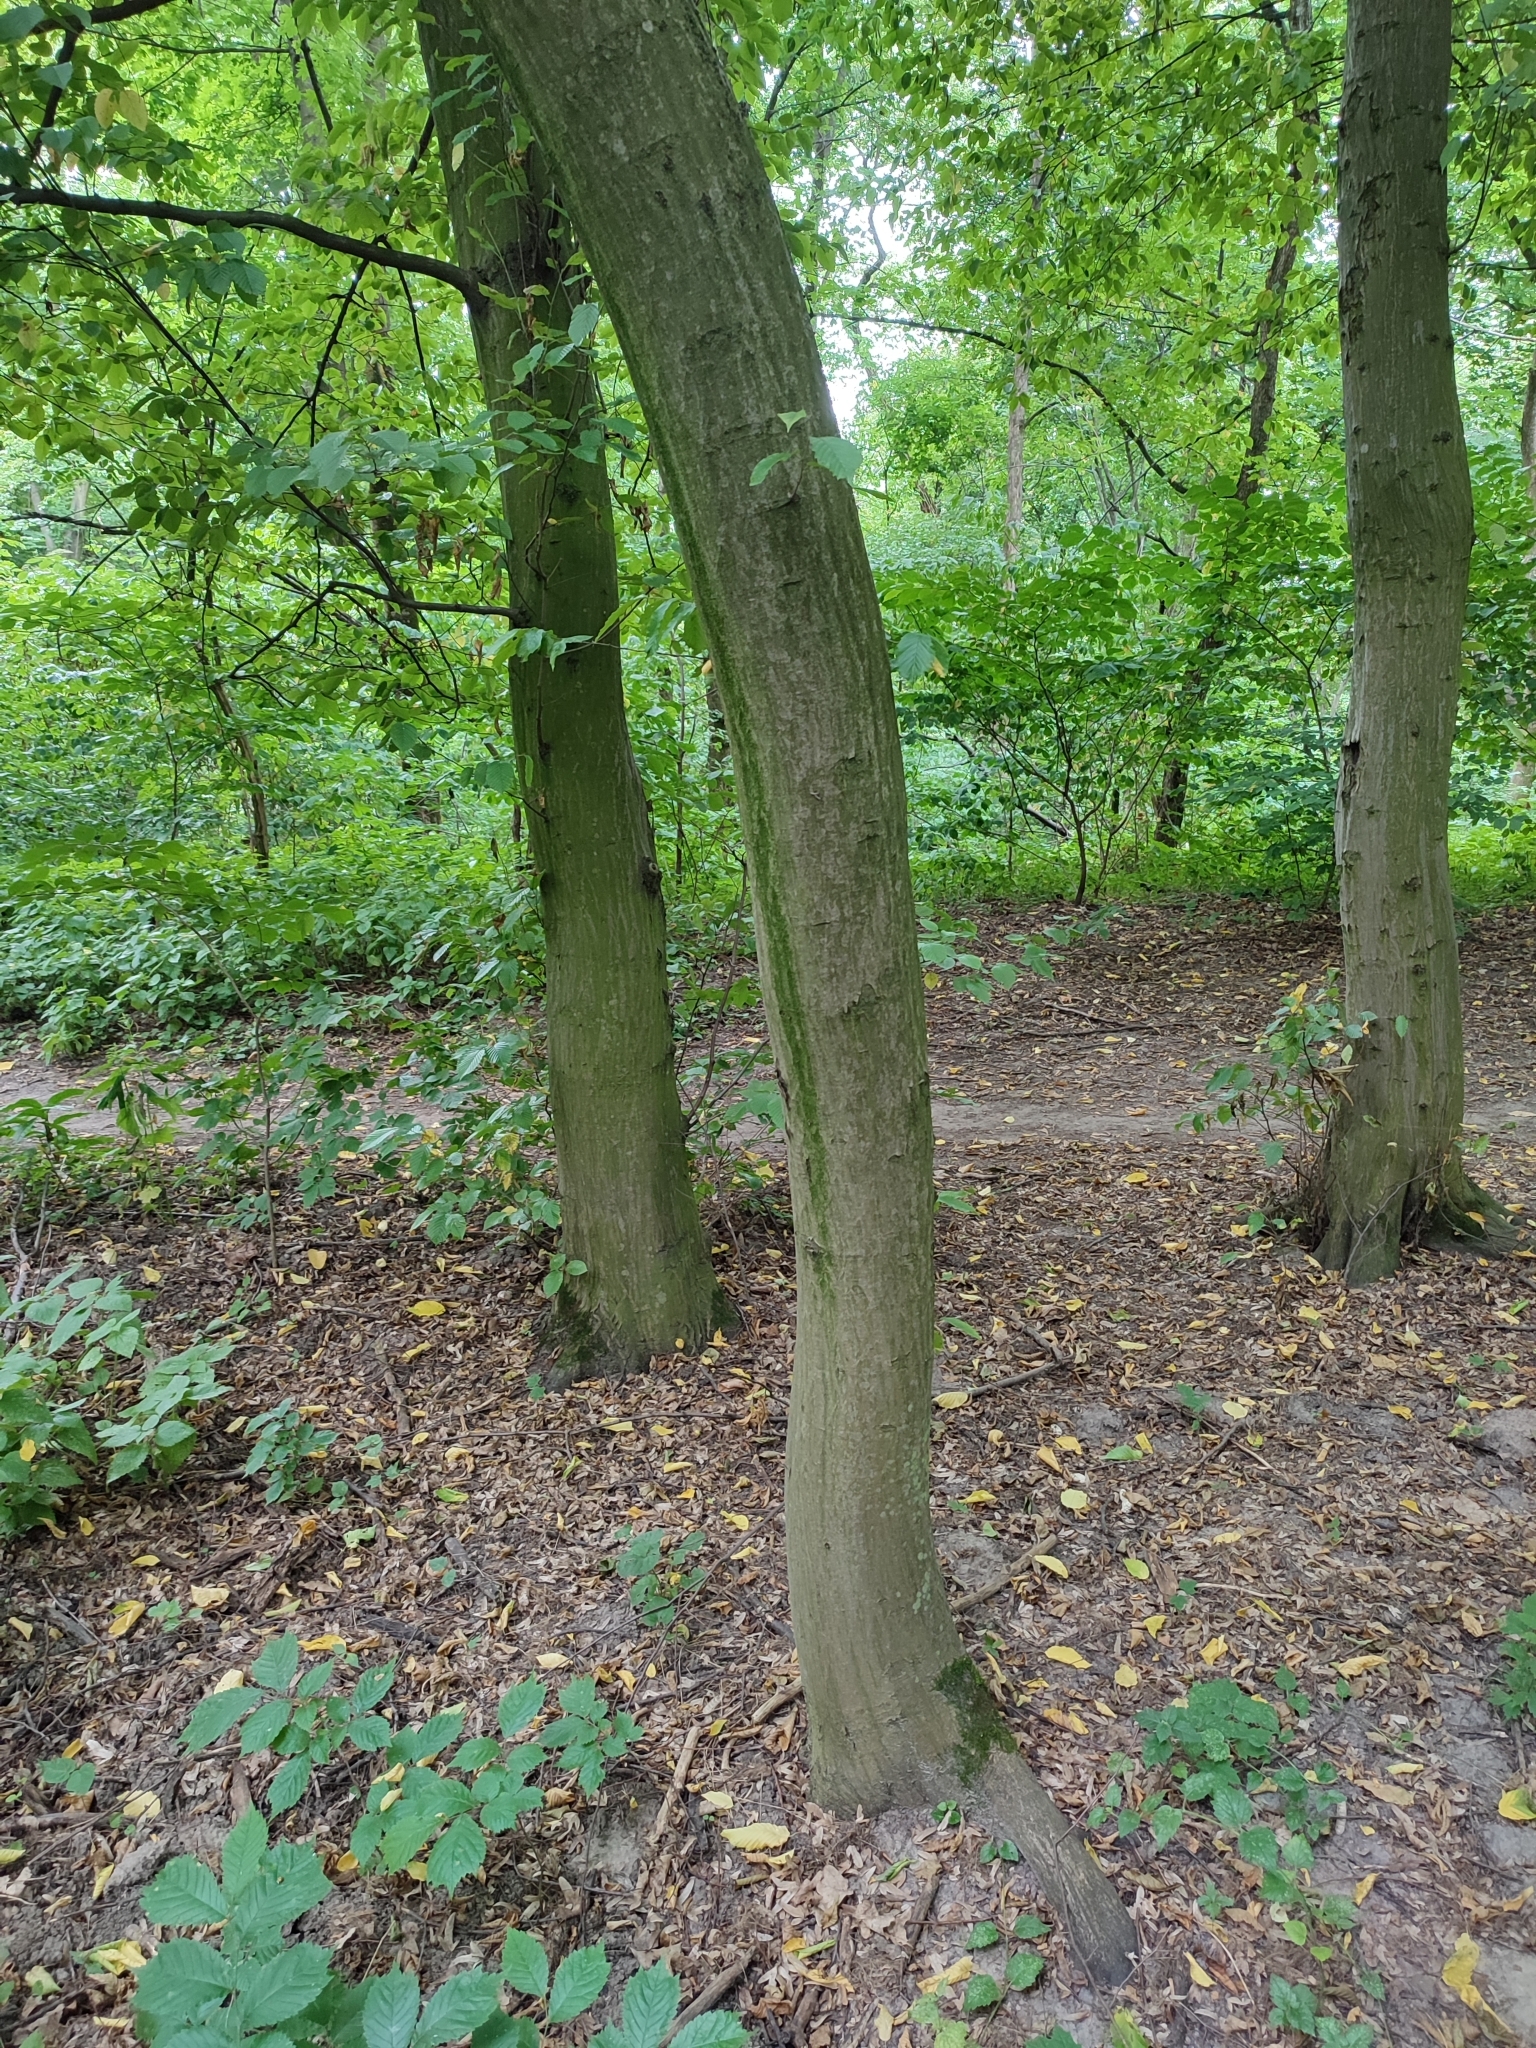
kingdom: Plantae
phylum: Tracheophyta
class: Magnoliopsida
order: Fagales
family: Betulaceae
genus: Carpinus
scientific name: Carpinus betulus
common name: Hornbeam
